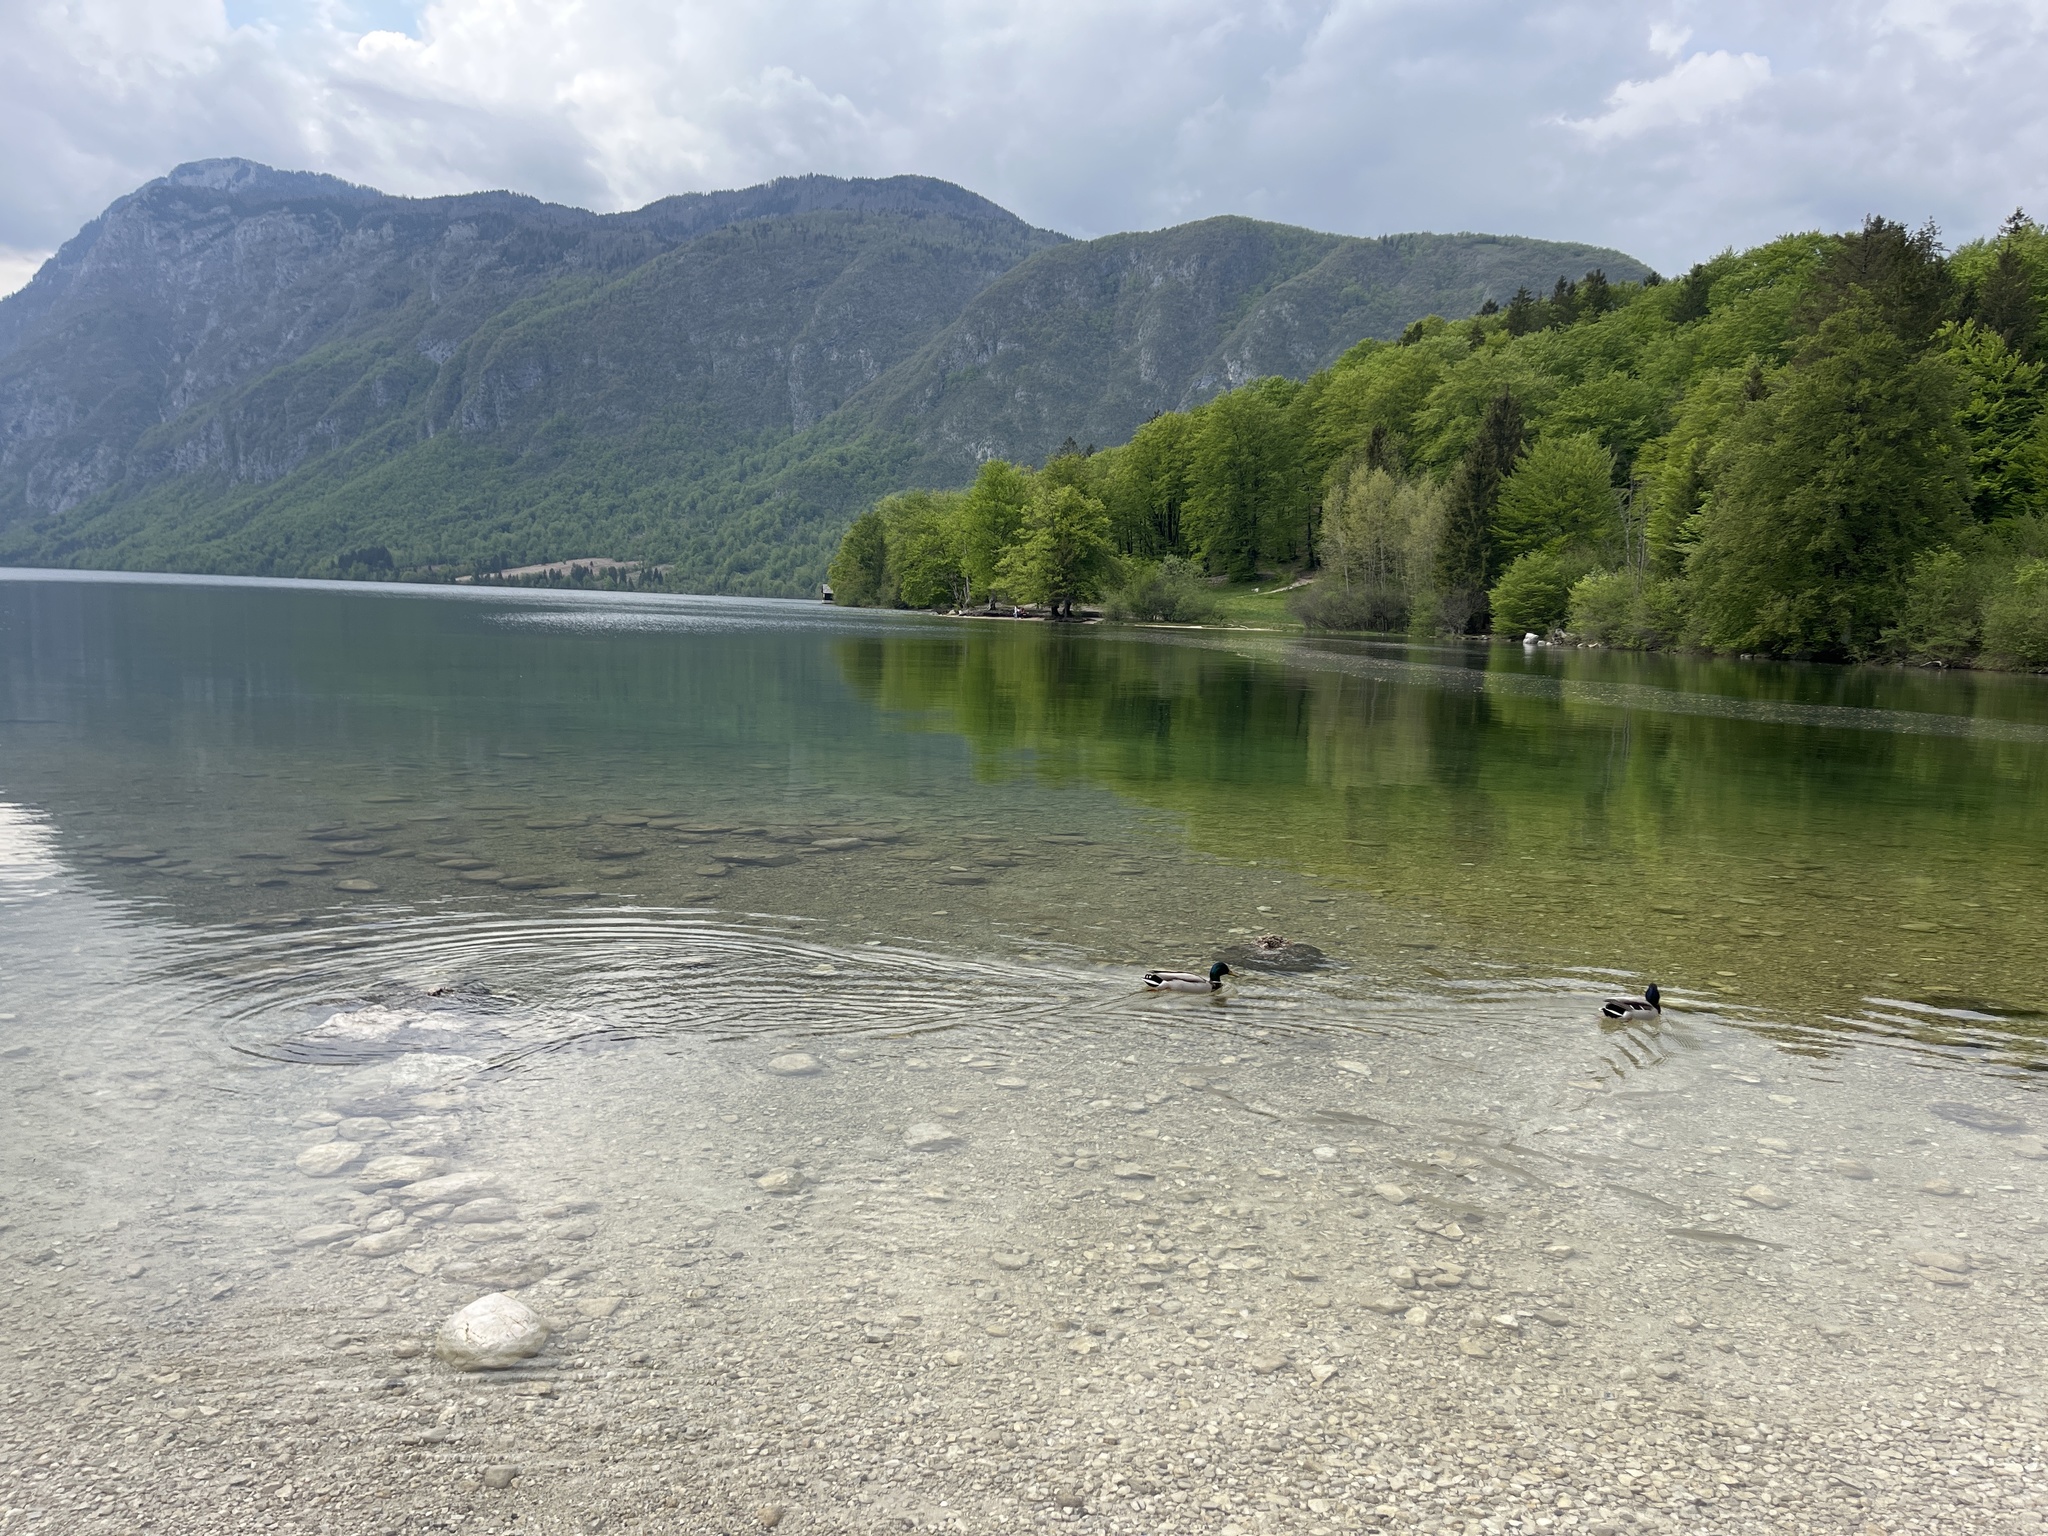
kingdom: Animalia
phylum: Chordata
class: Aves
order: Anseriformes
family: Anatidae
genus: Anas
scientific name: Anas platyrhynchos
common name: Mallard
